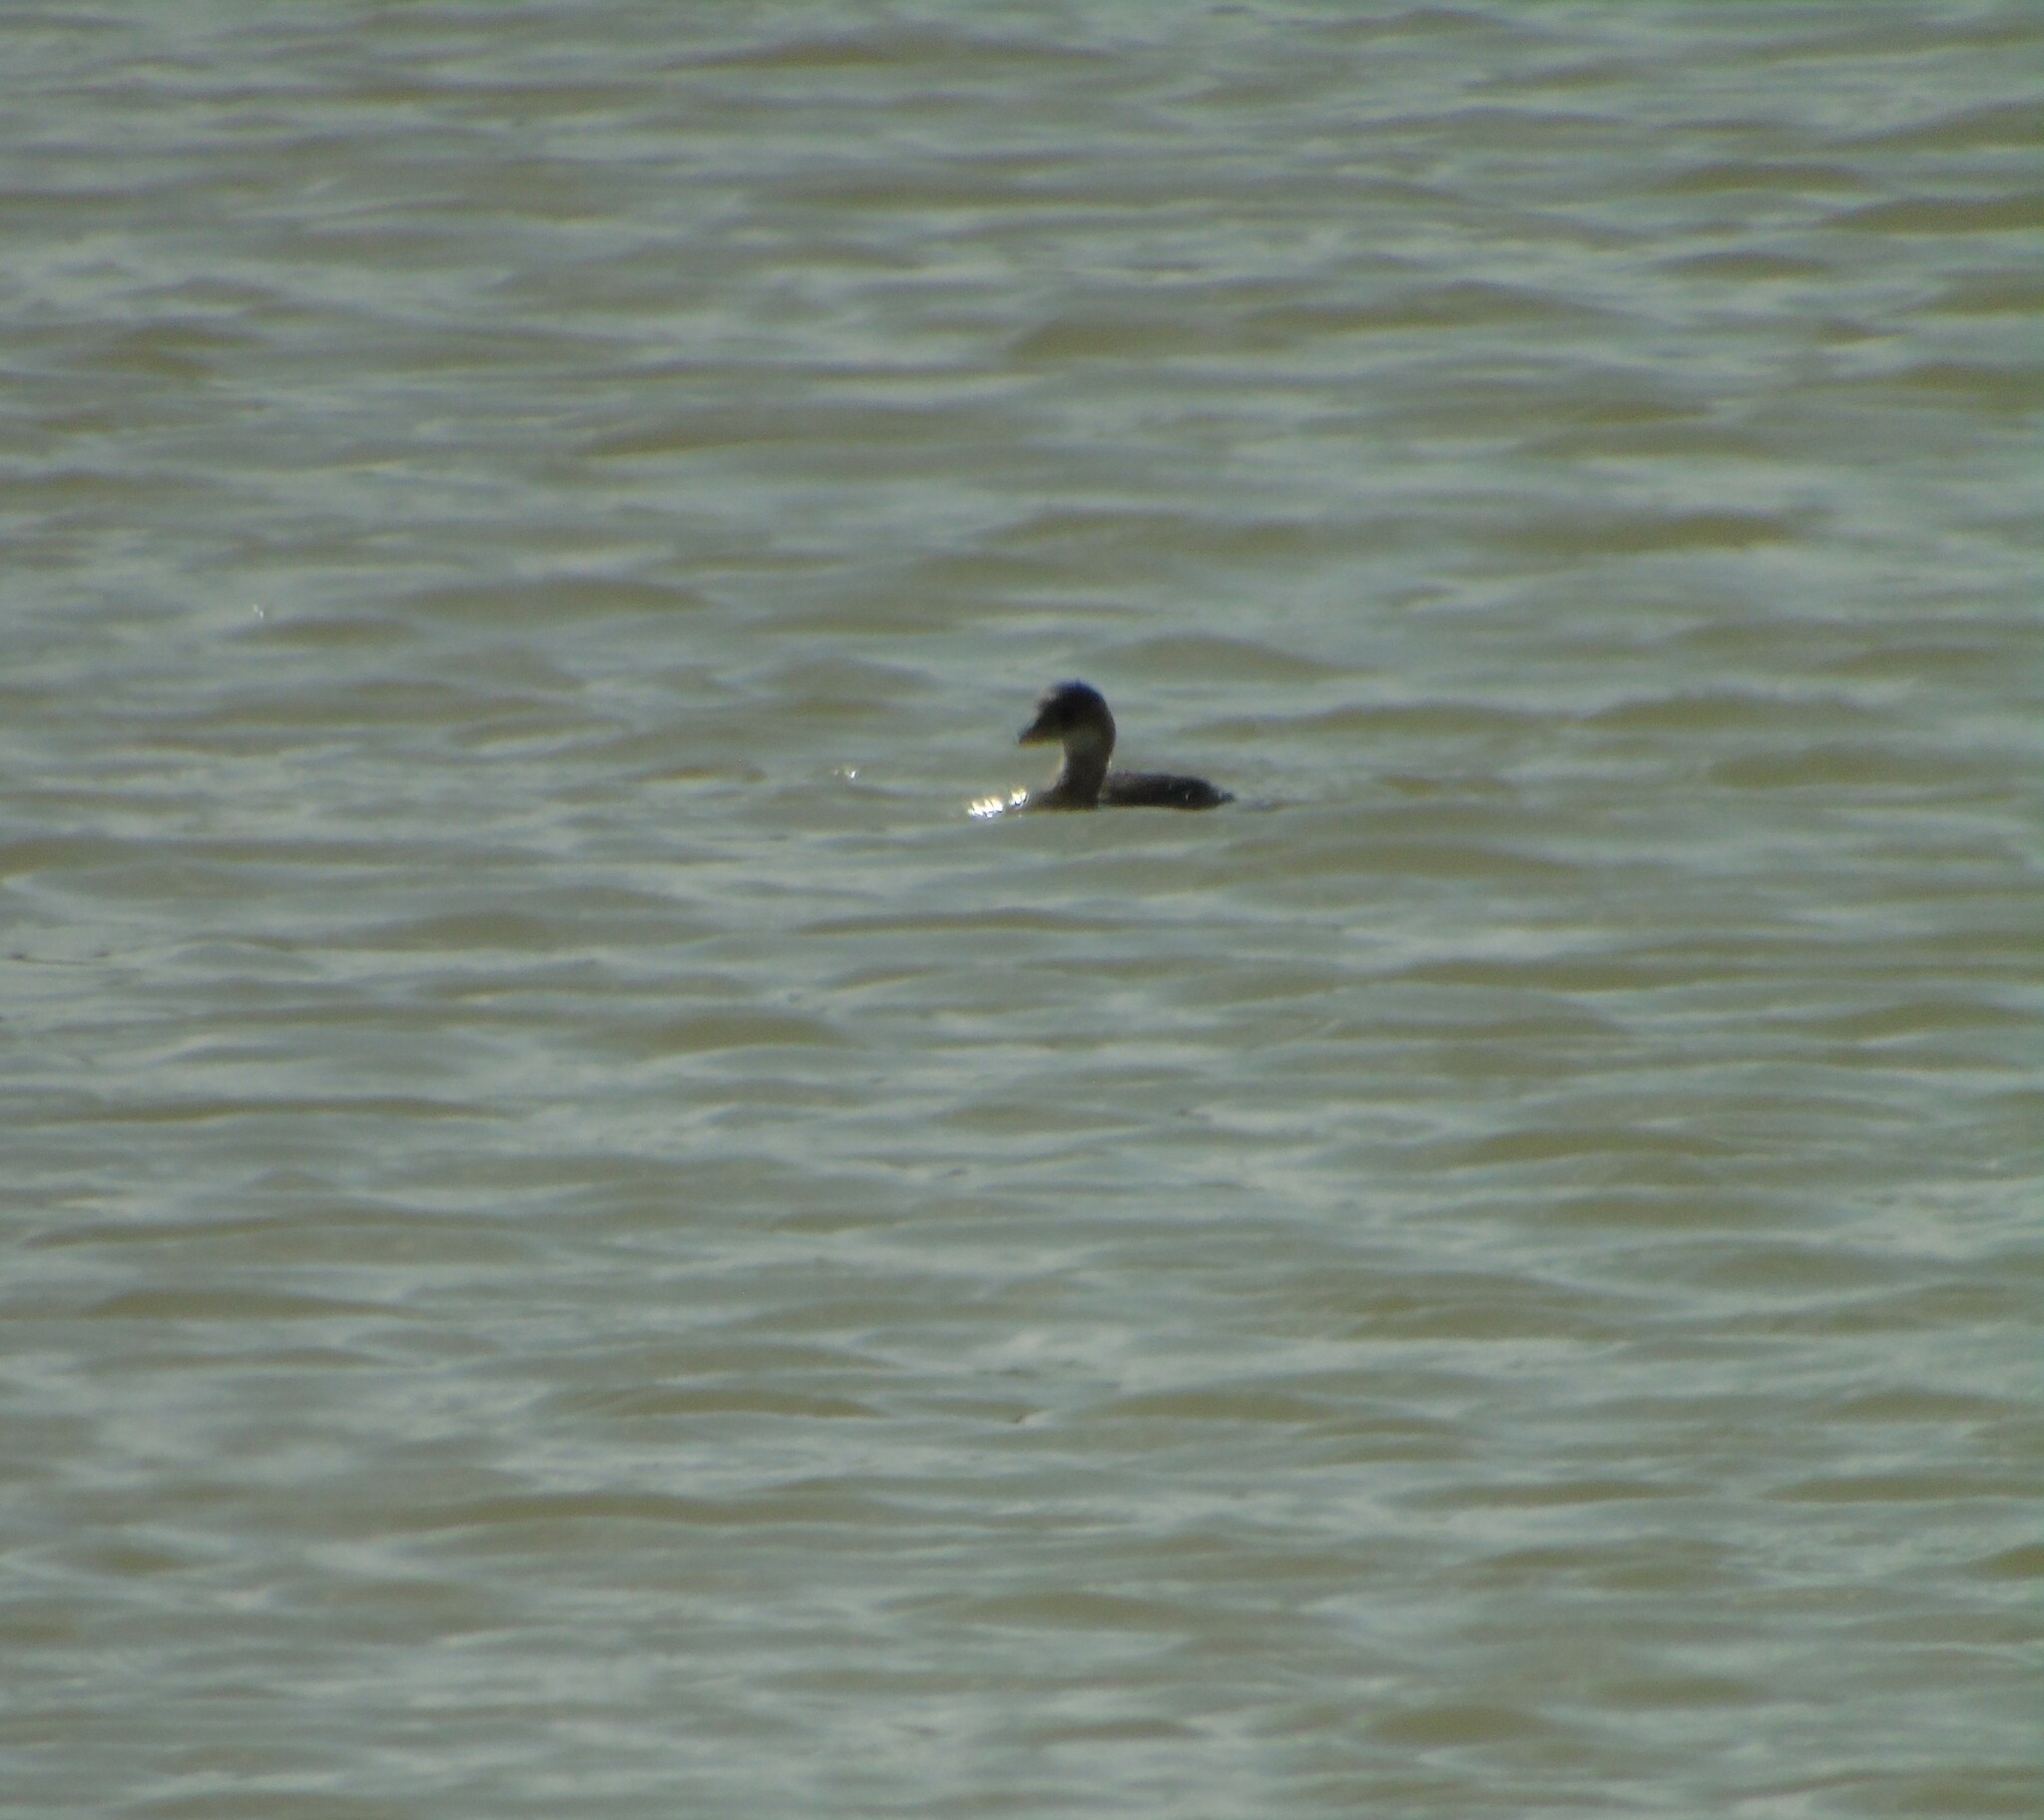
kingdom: Animalia
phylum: Chordata
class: Aves
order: Podicipediformes
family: Podicipedidae
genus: Tachybaptus
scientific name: Tachybaptus ruficollis
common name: Little grebe
